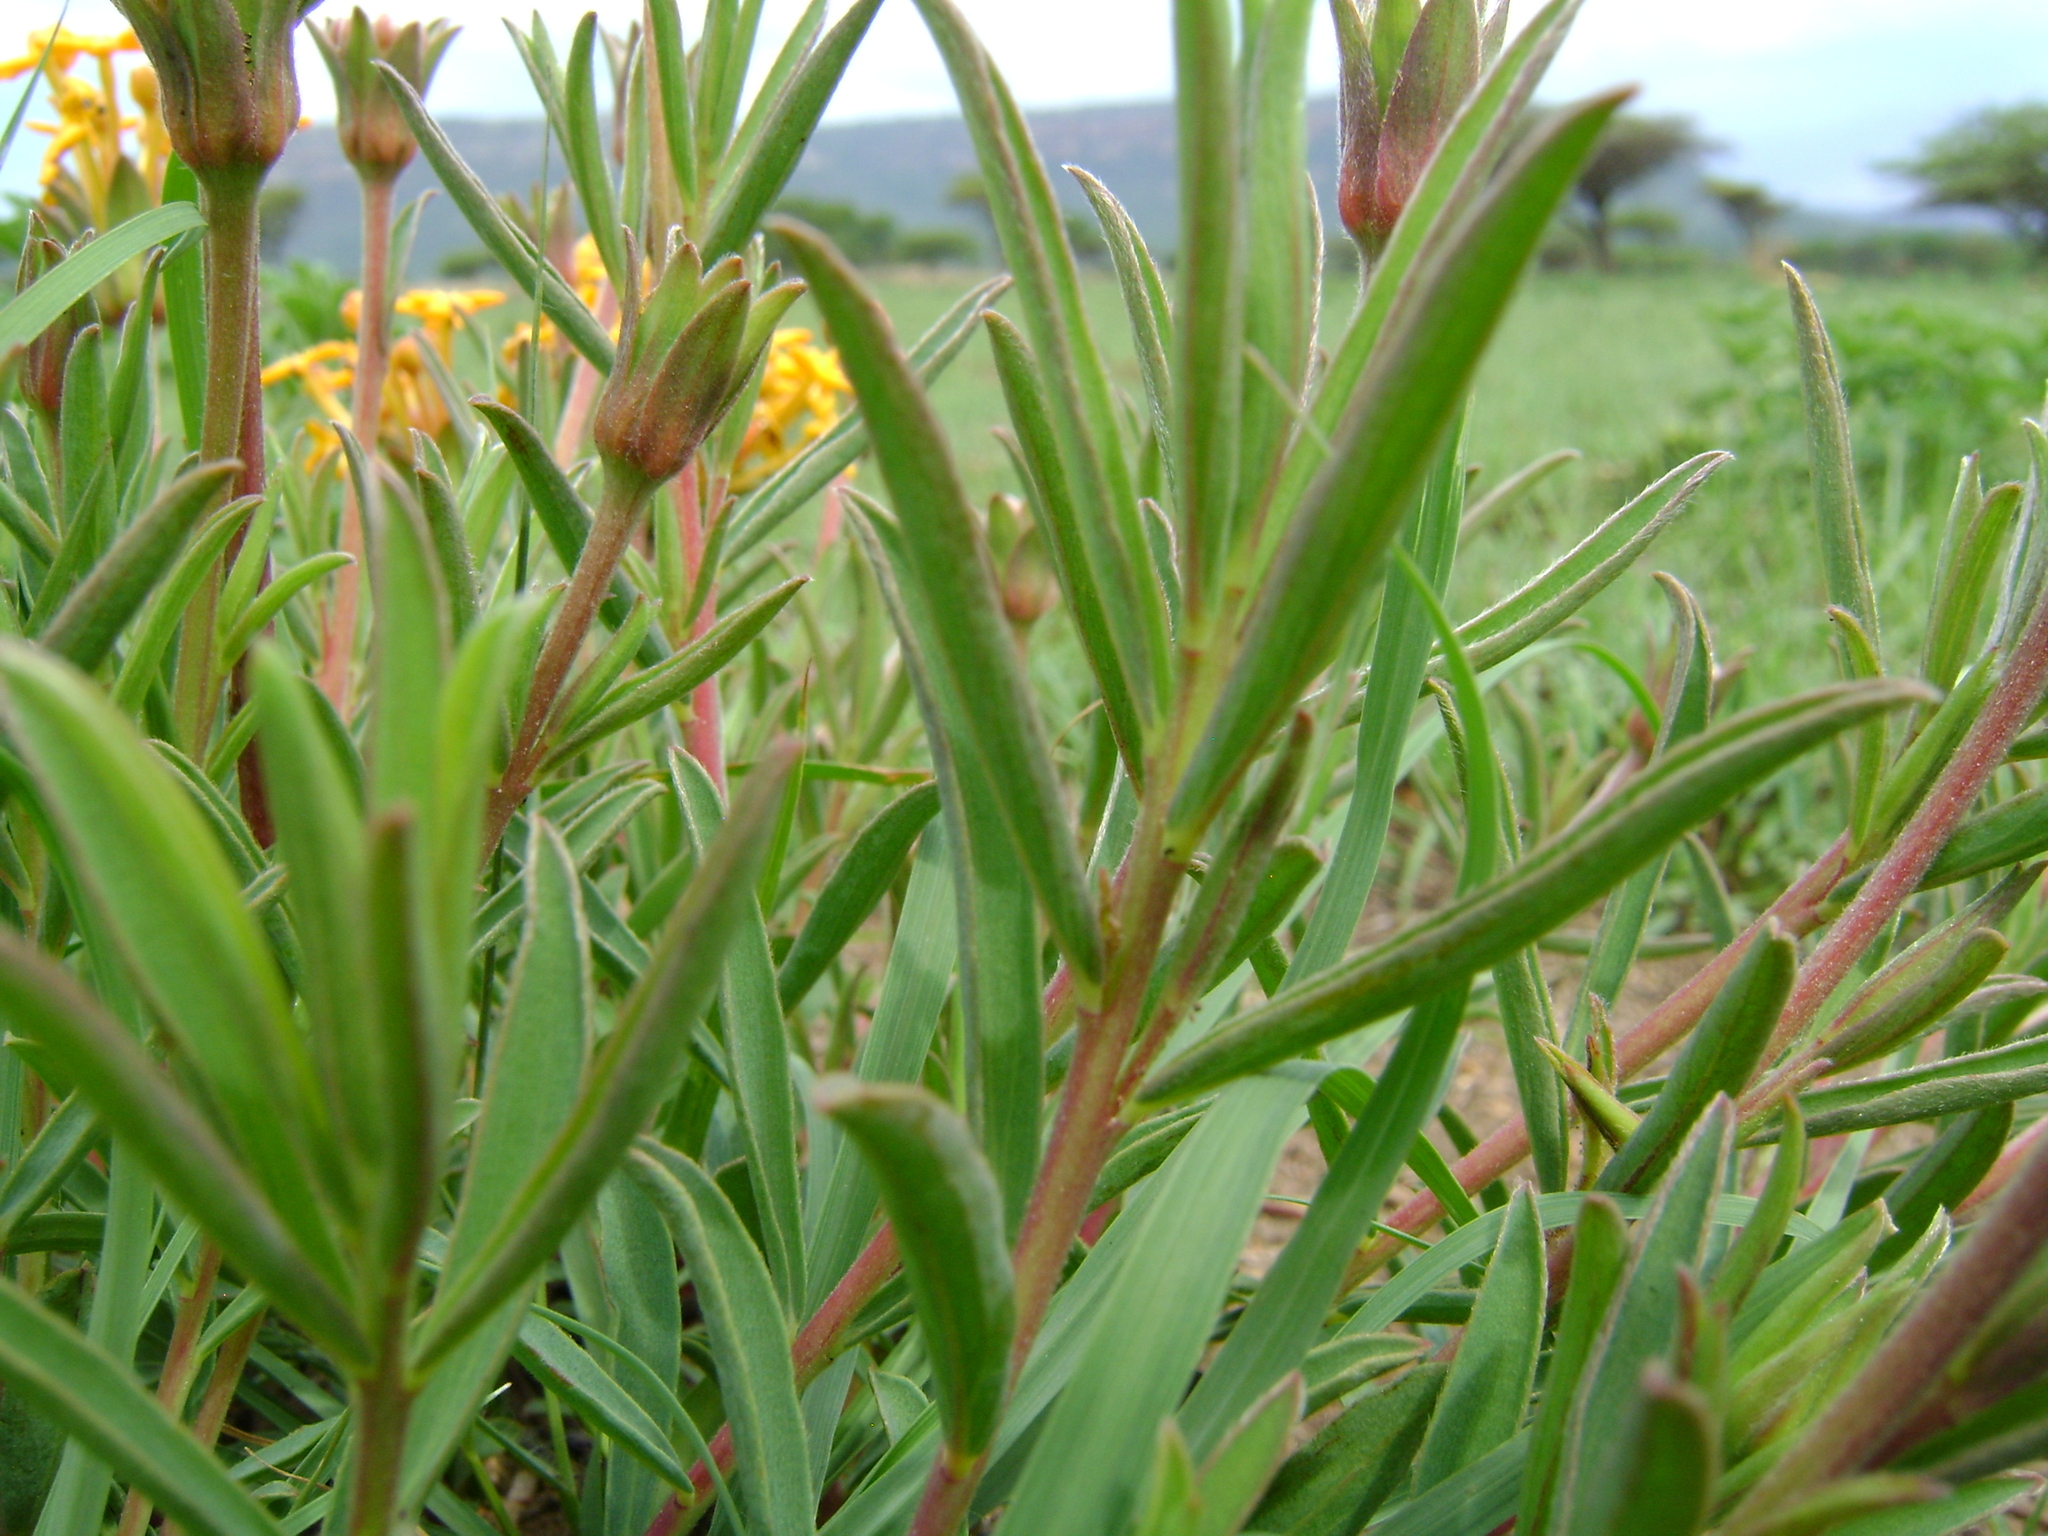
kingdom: Plantae
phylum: Tracheophyta
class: Magnoliopsida
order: Malvales
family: Thymelaeaceae
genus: Gnidia
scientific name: Gnidia capitata
